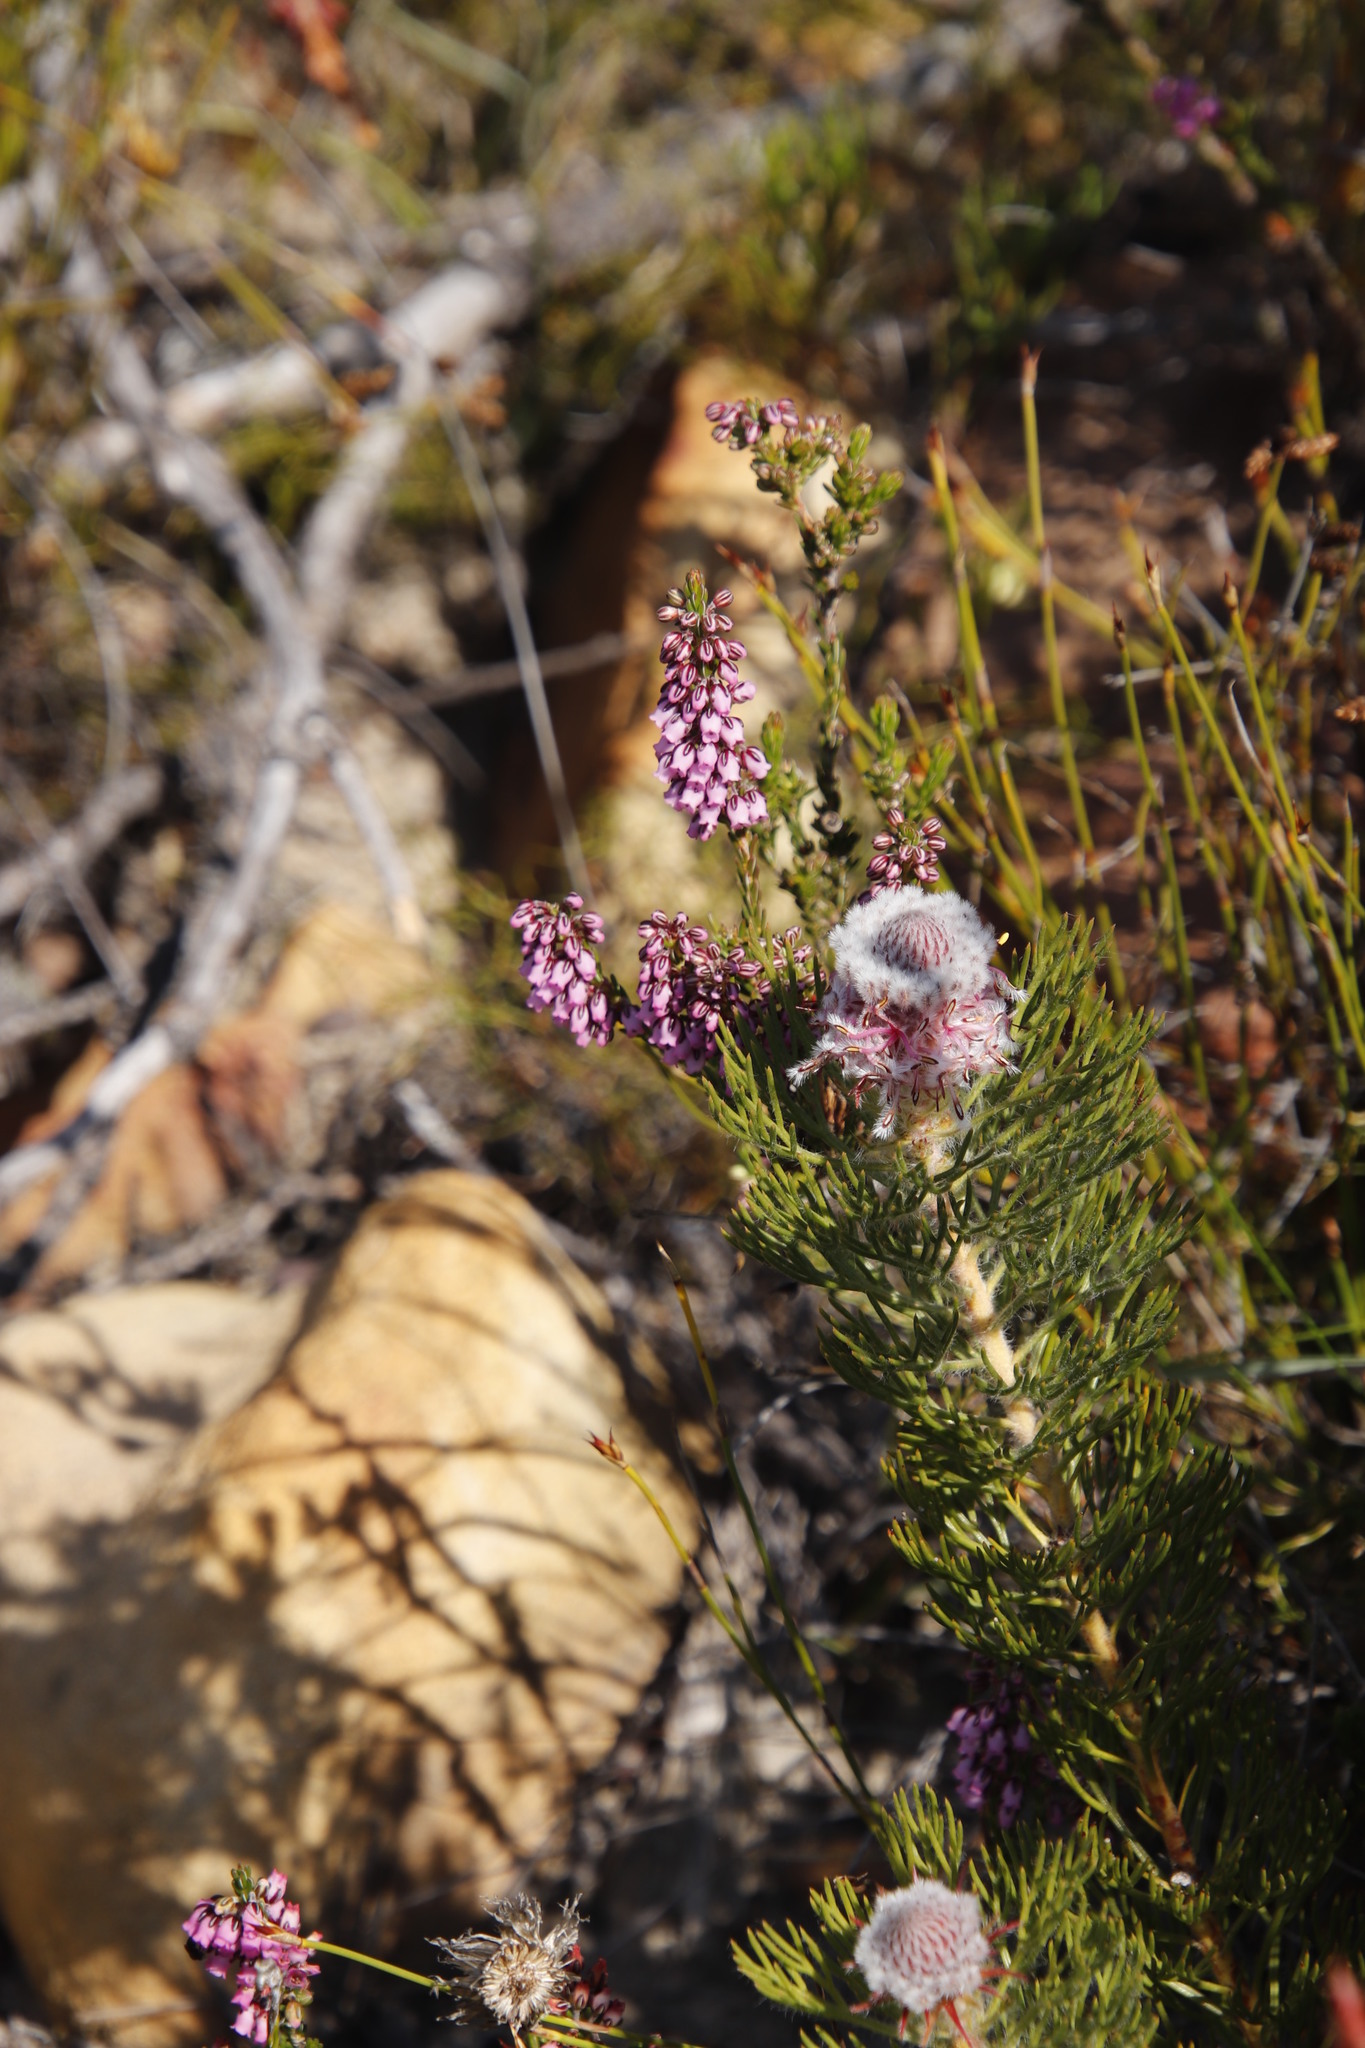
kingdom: Plantae
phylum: Tracheophyta
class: Magnoliopsida
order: Ericales
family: Ericaceae
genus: Erica
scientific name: Erica pulchella
